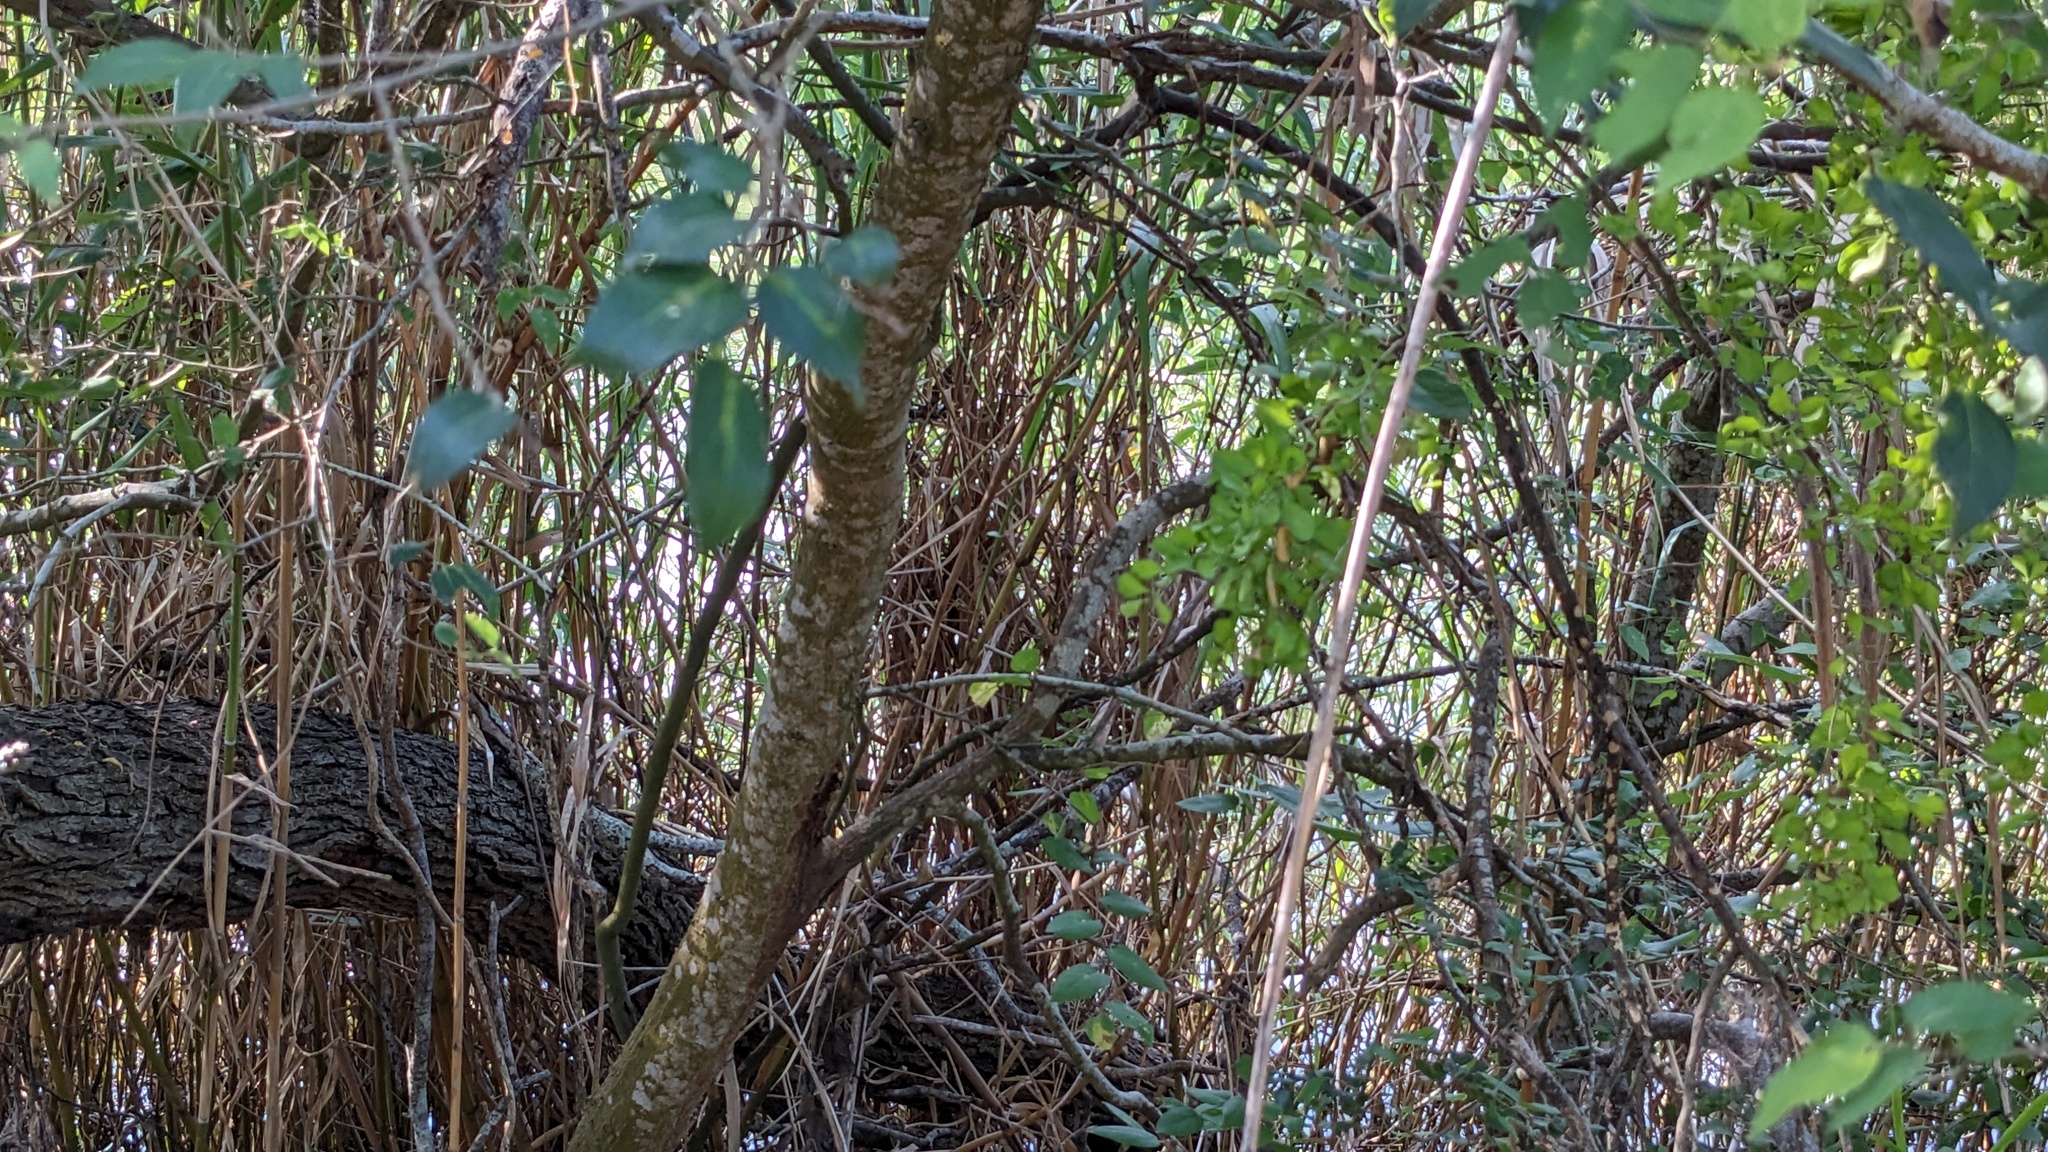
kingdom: Plantae
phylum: Tracheophyta
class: Magnoliopsida
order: Rosales
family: Cannabaceae
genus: Celtis
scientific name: Celtis laevigata
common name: Sugarberry
